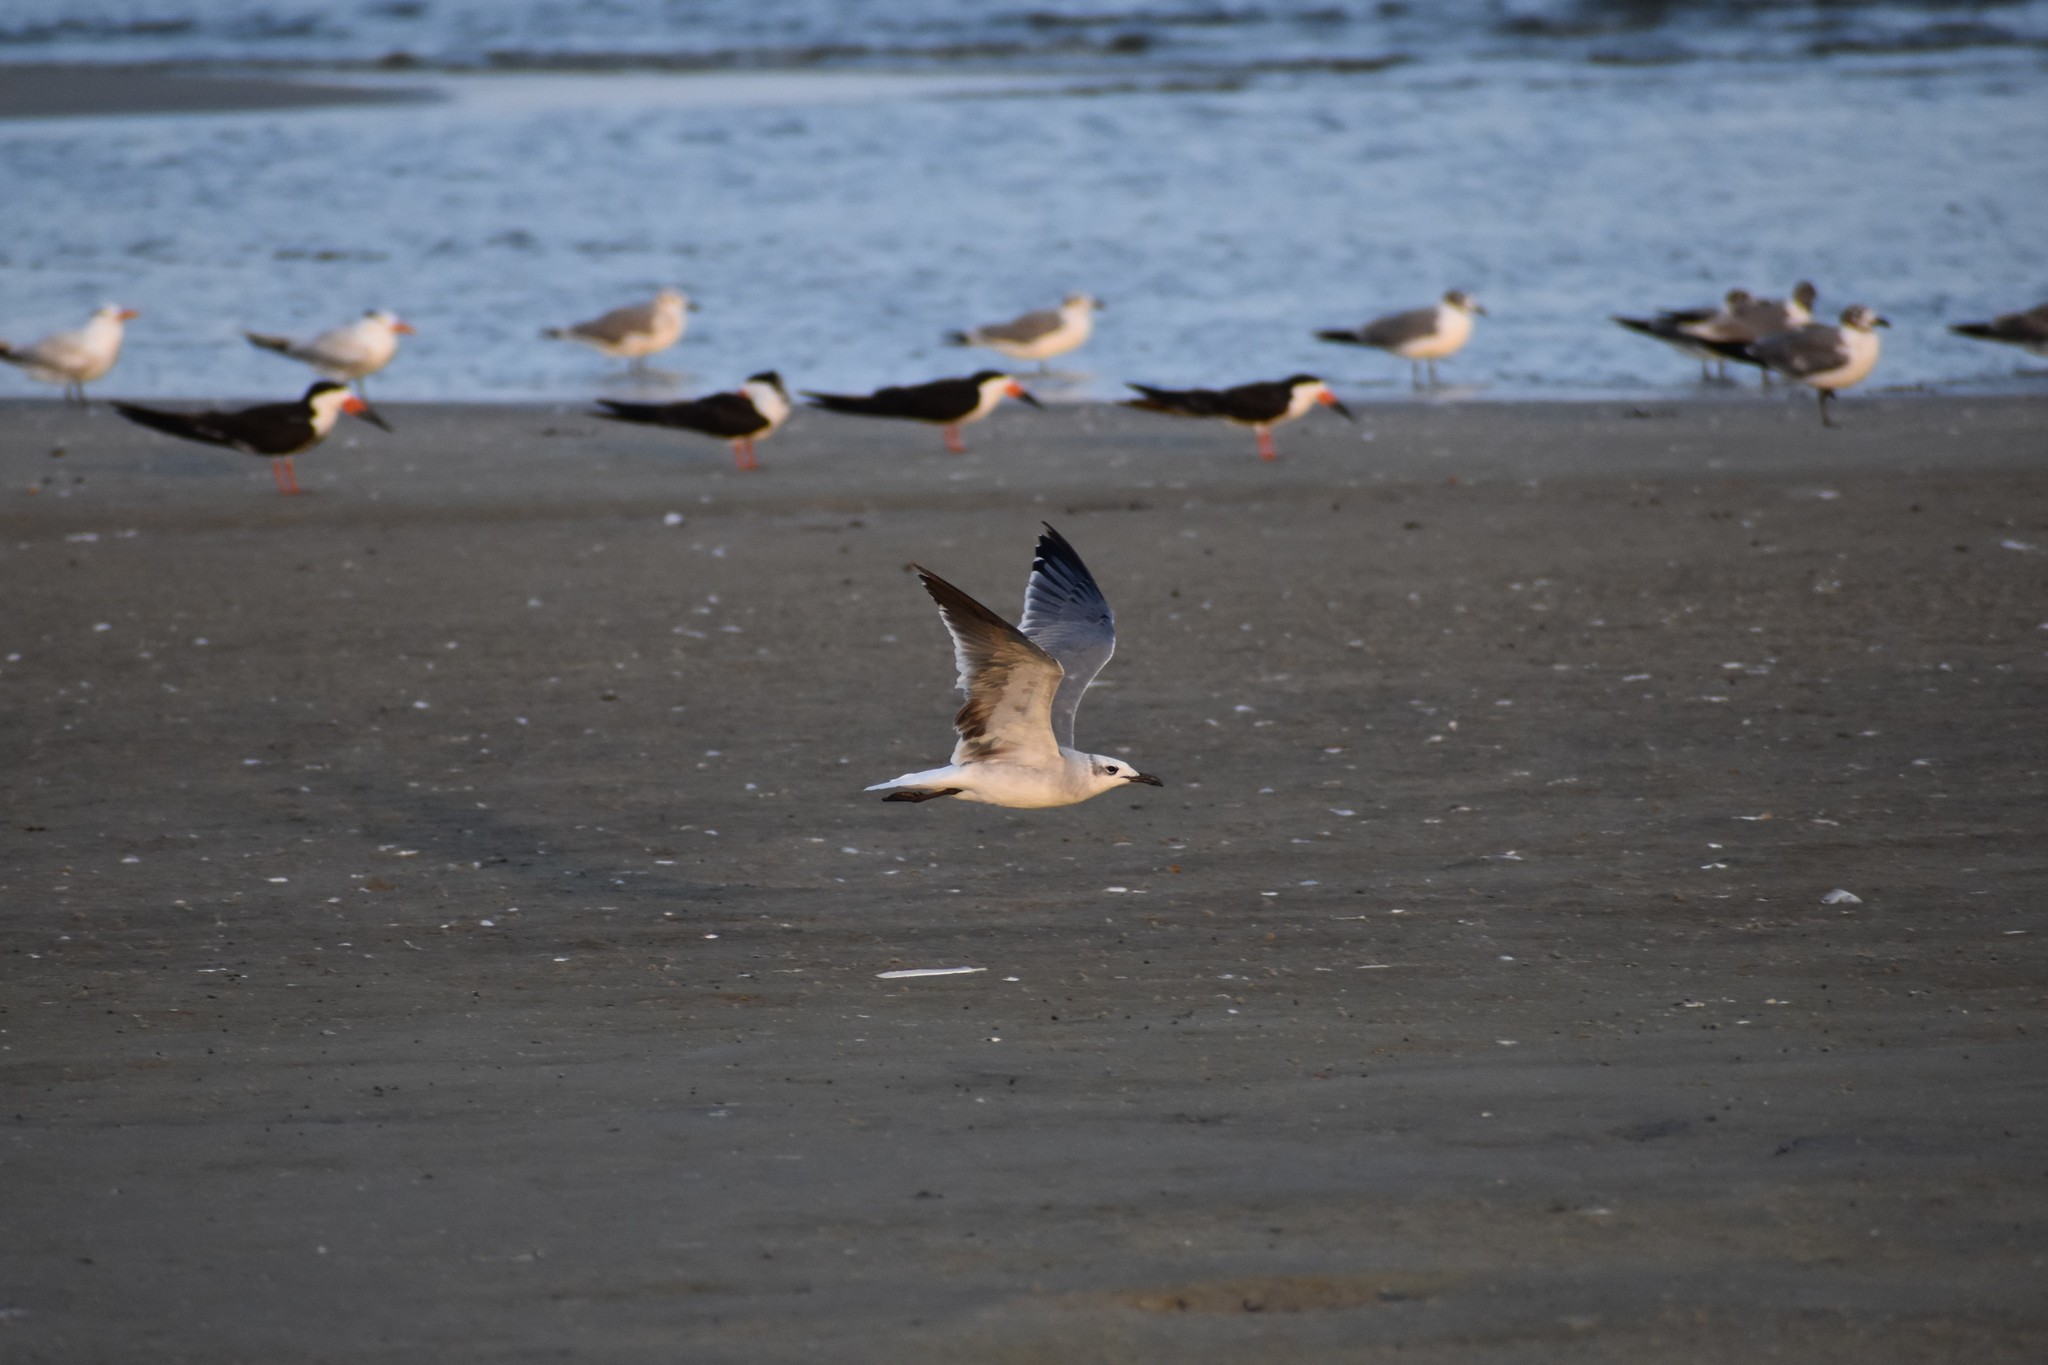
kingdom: Animalia
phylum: Chordata
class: Aves
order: Charadriiformes
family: Laridae
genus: Leucophaeus
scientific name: Leucophaeus atricilla
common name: Laughing gull
